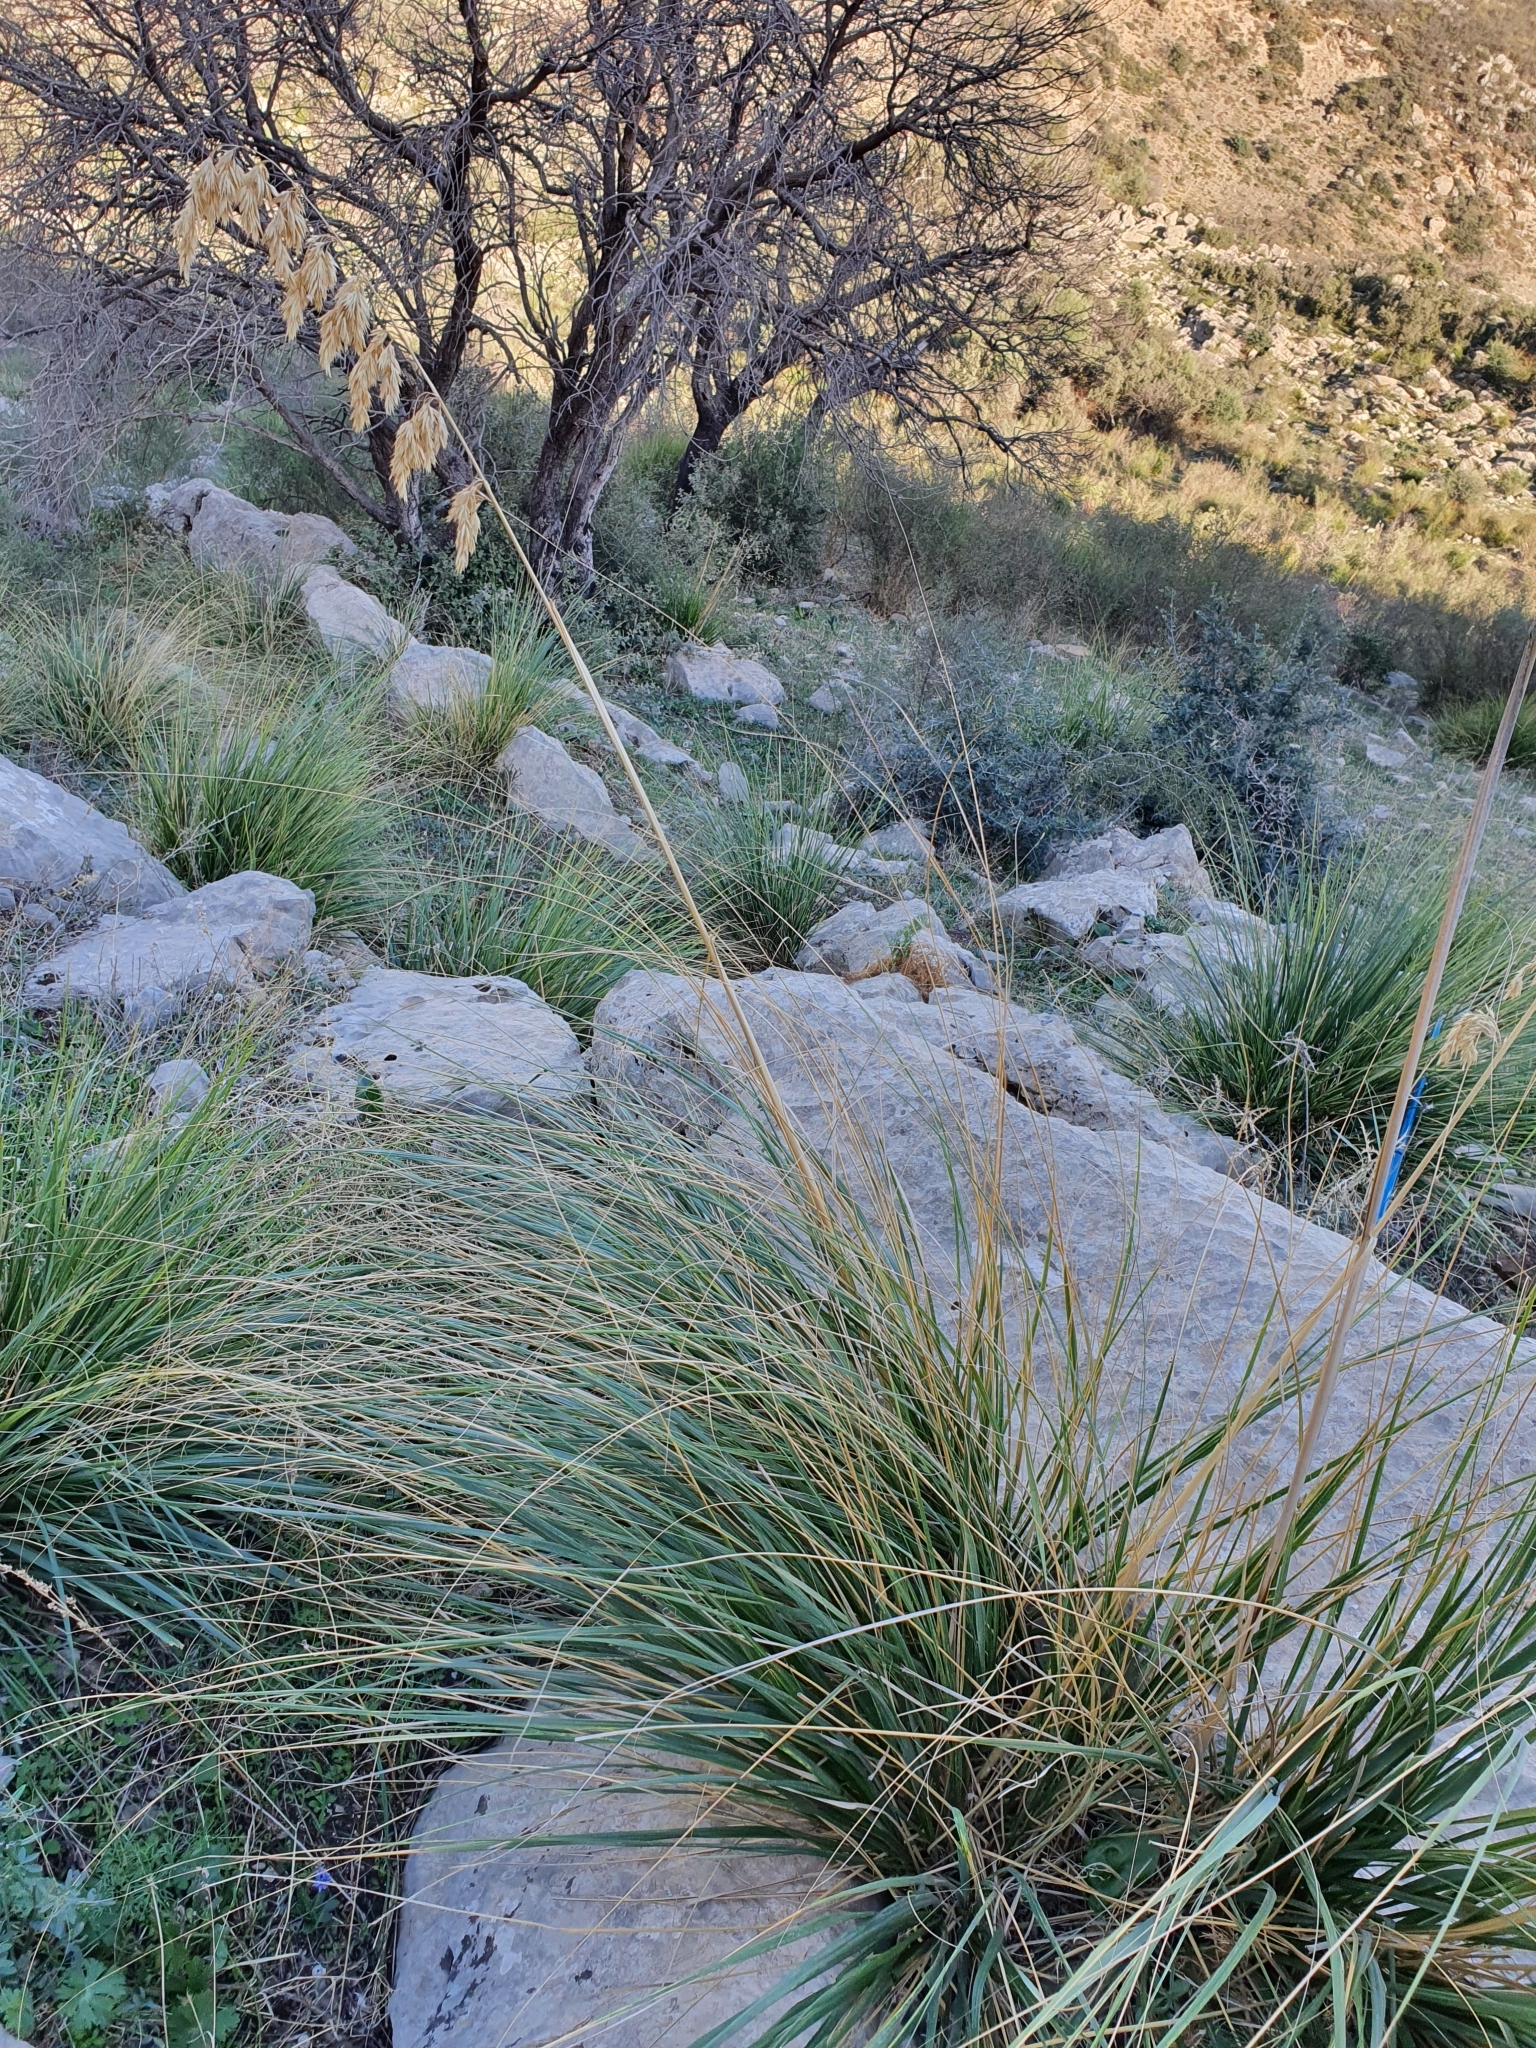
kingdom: Plantae
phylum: Tracheophyta
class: Liliopsida
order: Poales
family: Poaceae
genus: Ampelodesmos
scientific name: Ampelodesmos mauritanicus
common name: Mauritanian grass
